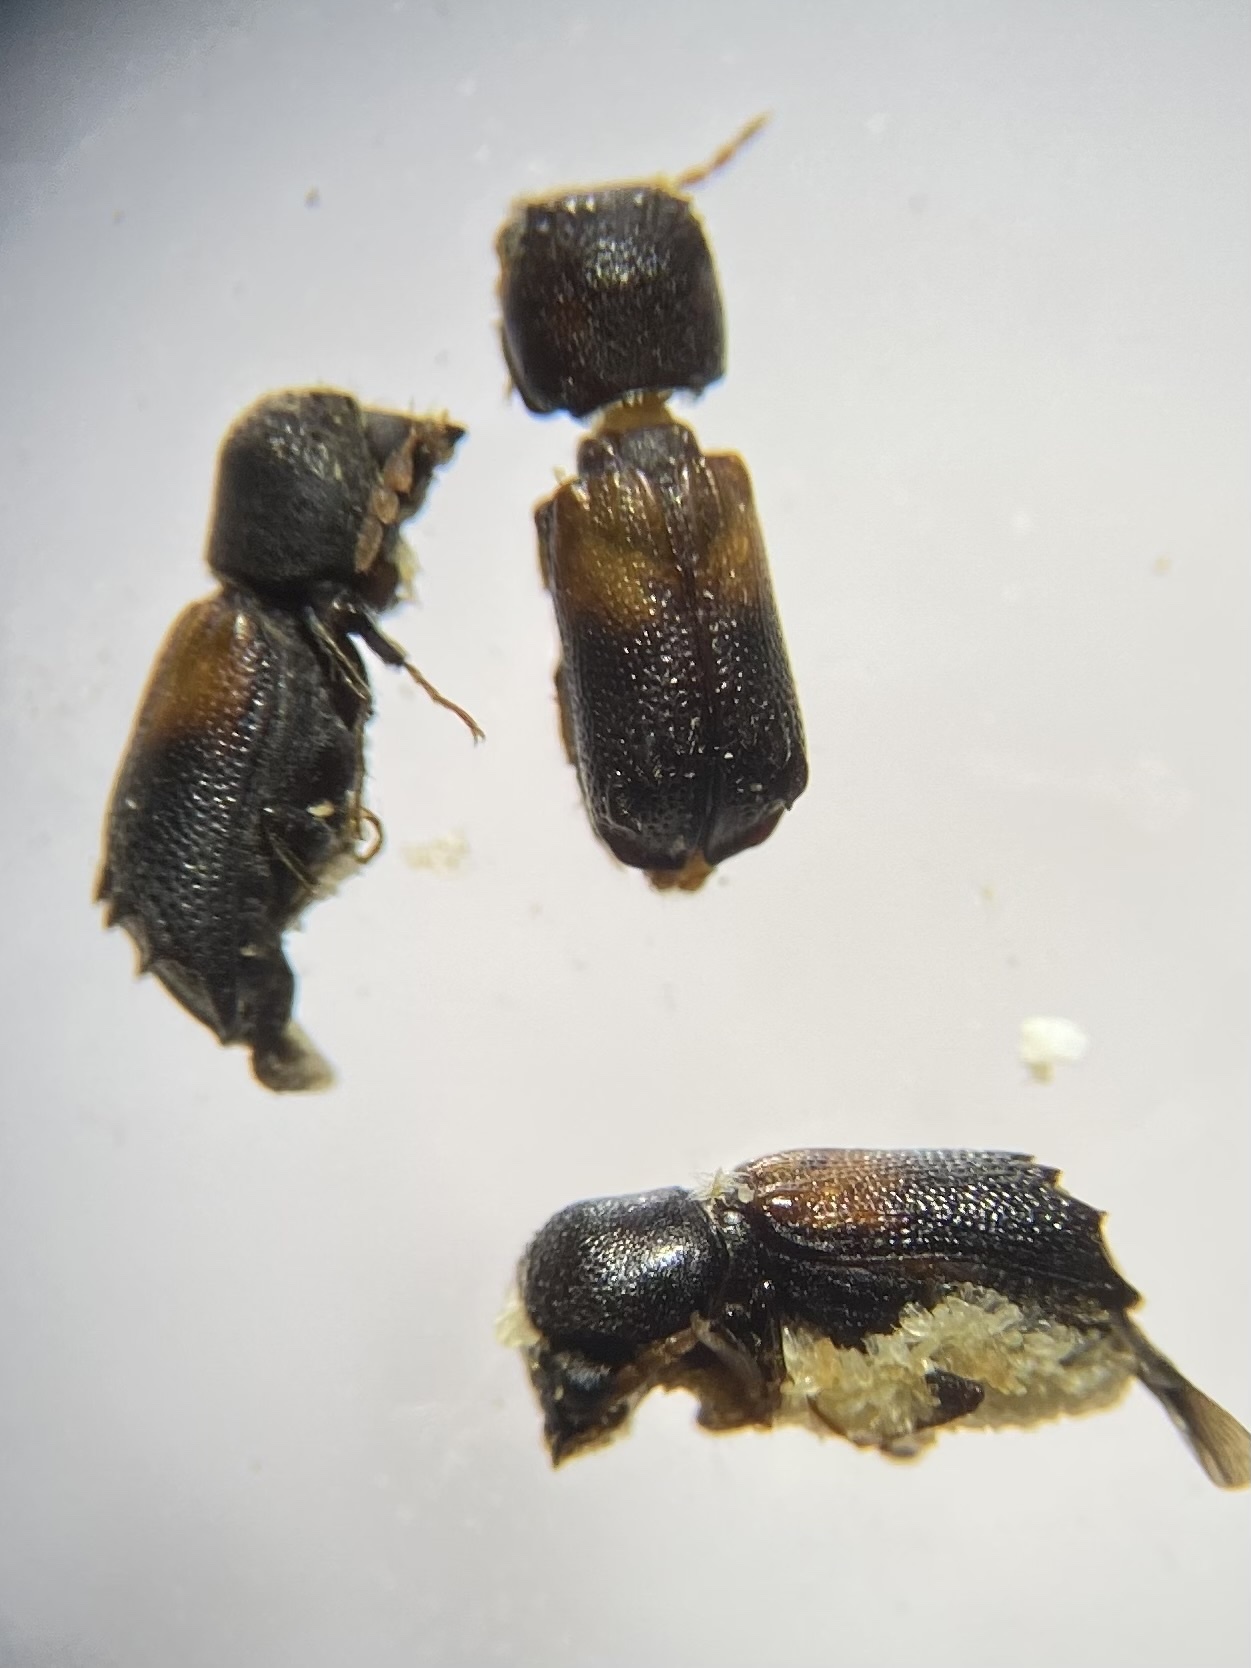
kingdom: Animalia
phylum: Arthropoda
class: Insecta
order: Coleoptera
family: Bostrichidae
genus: Xylobiops
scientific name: Xylobiops basilaris
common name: Red-shouldered bostrichid
